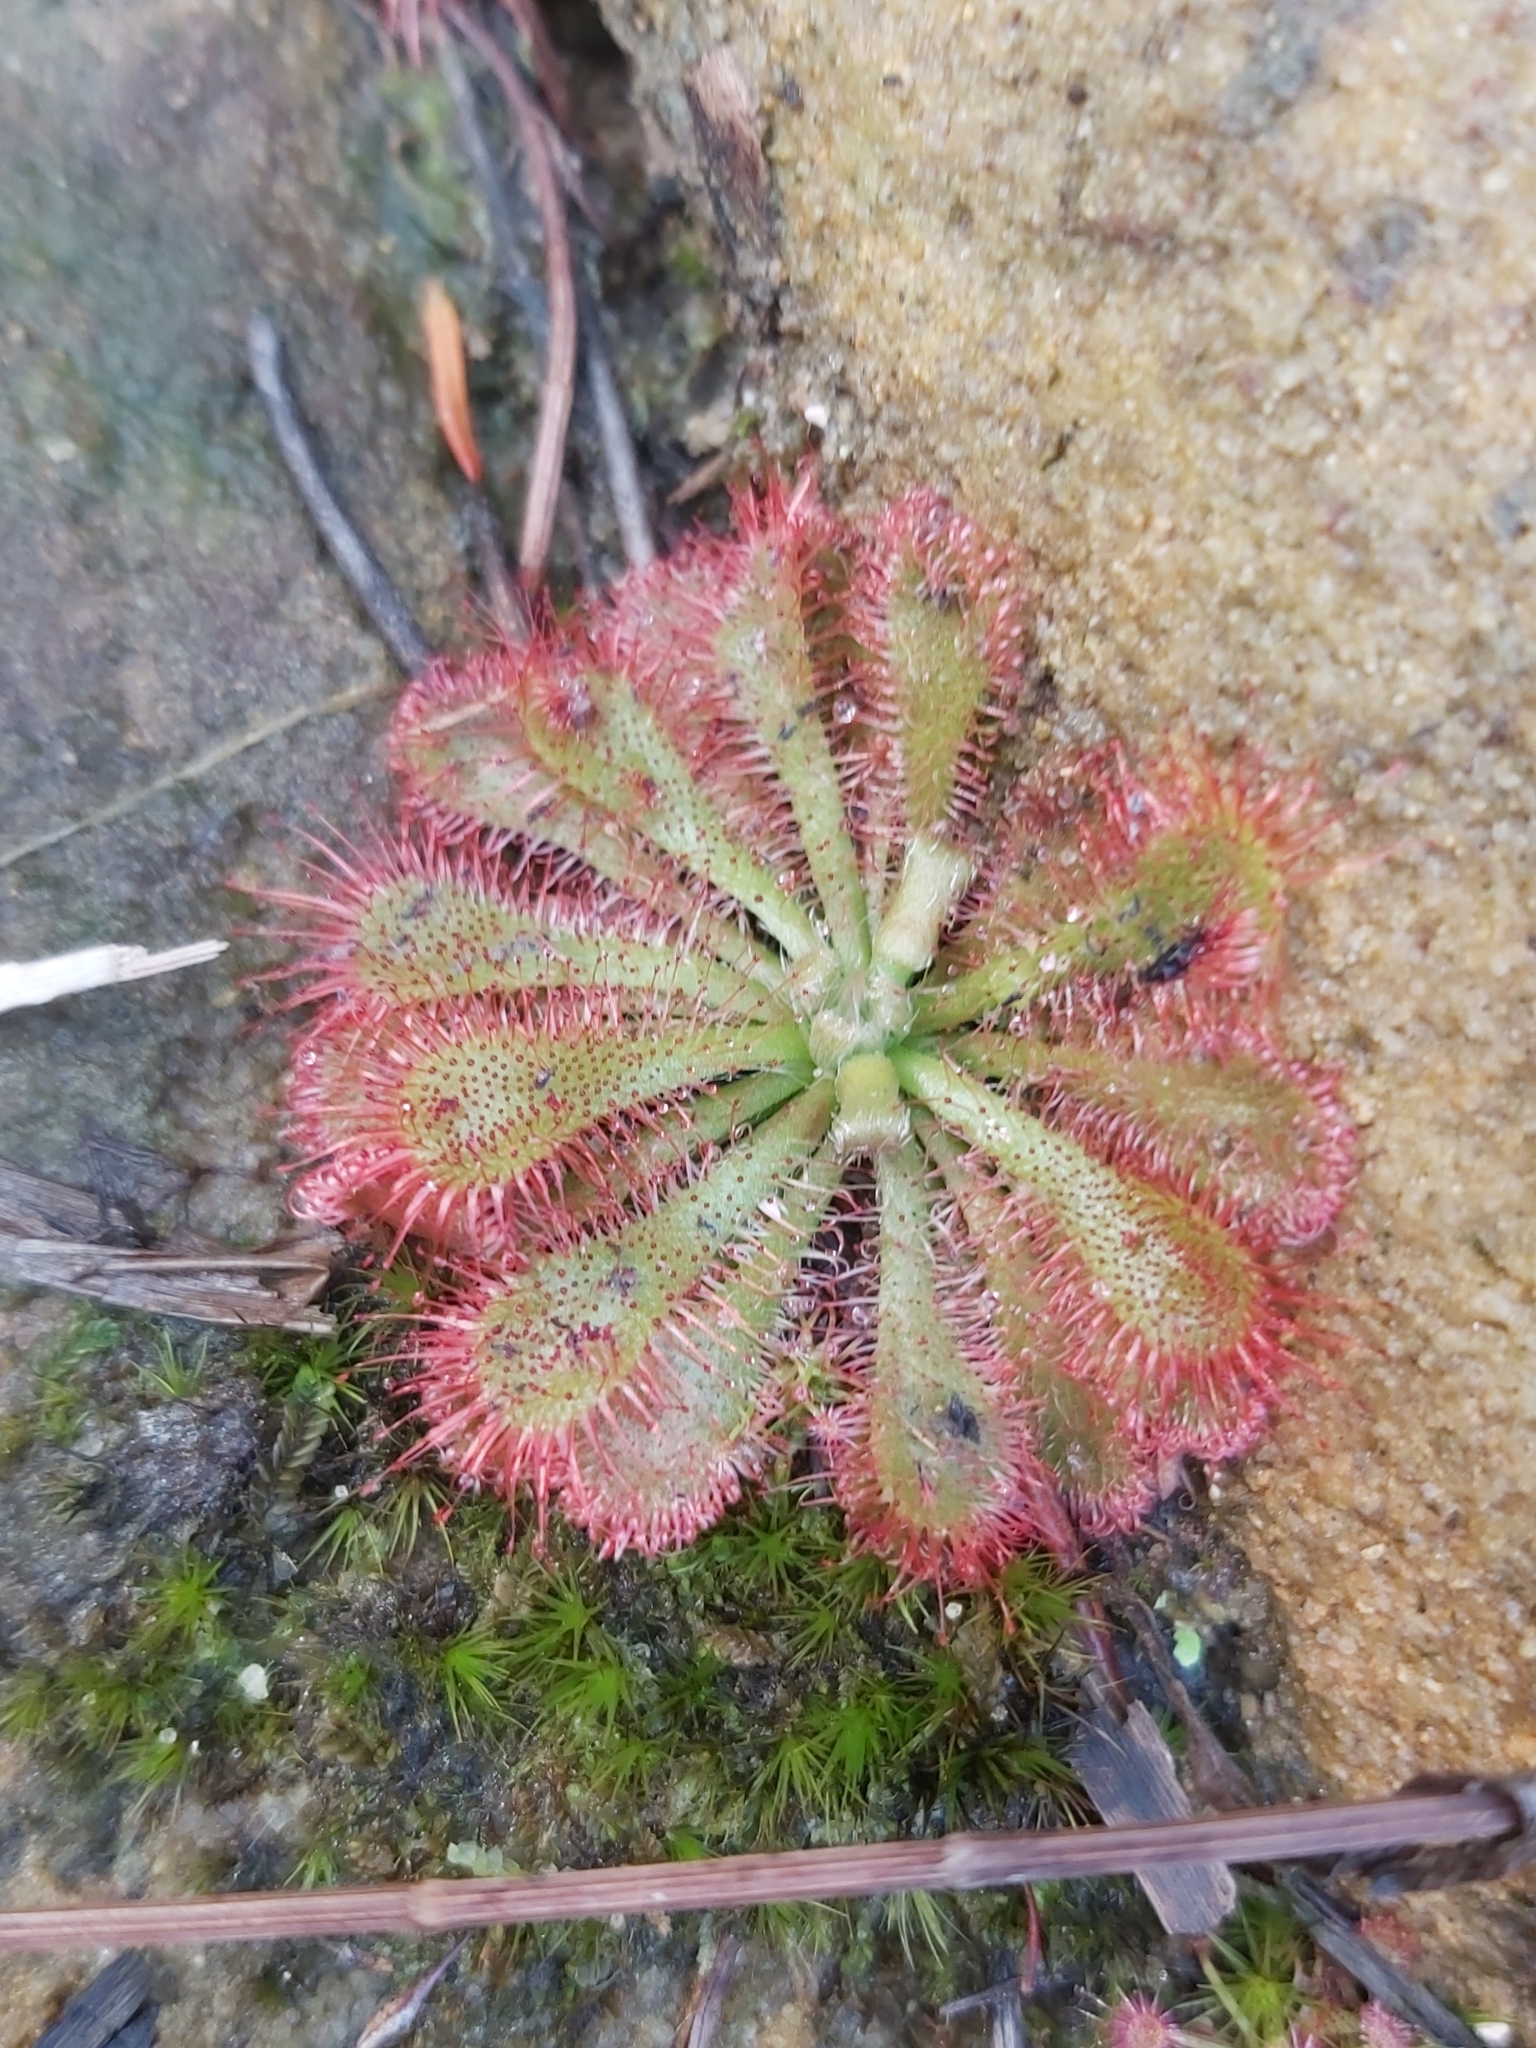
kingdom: Plantae
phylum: Tracheophyta
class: Magnoliopsida
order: Caryophyllales
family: Droseraceae
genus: Drosera
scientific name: Drosera spatulata
